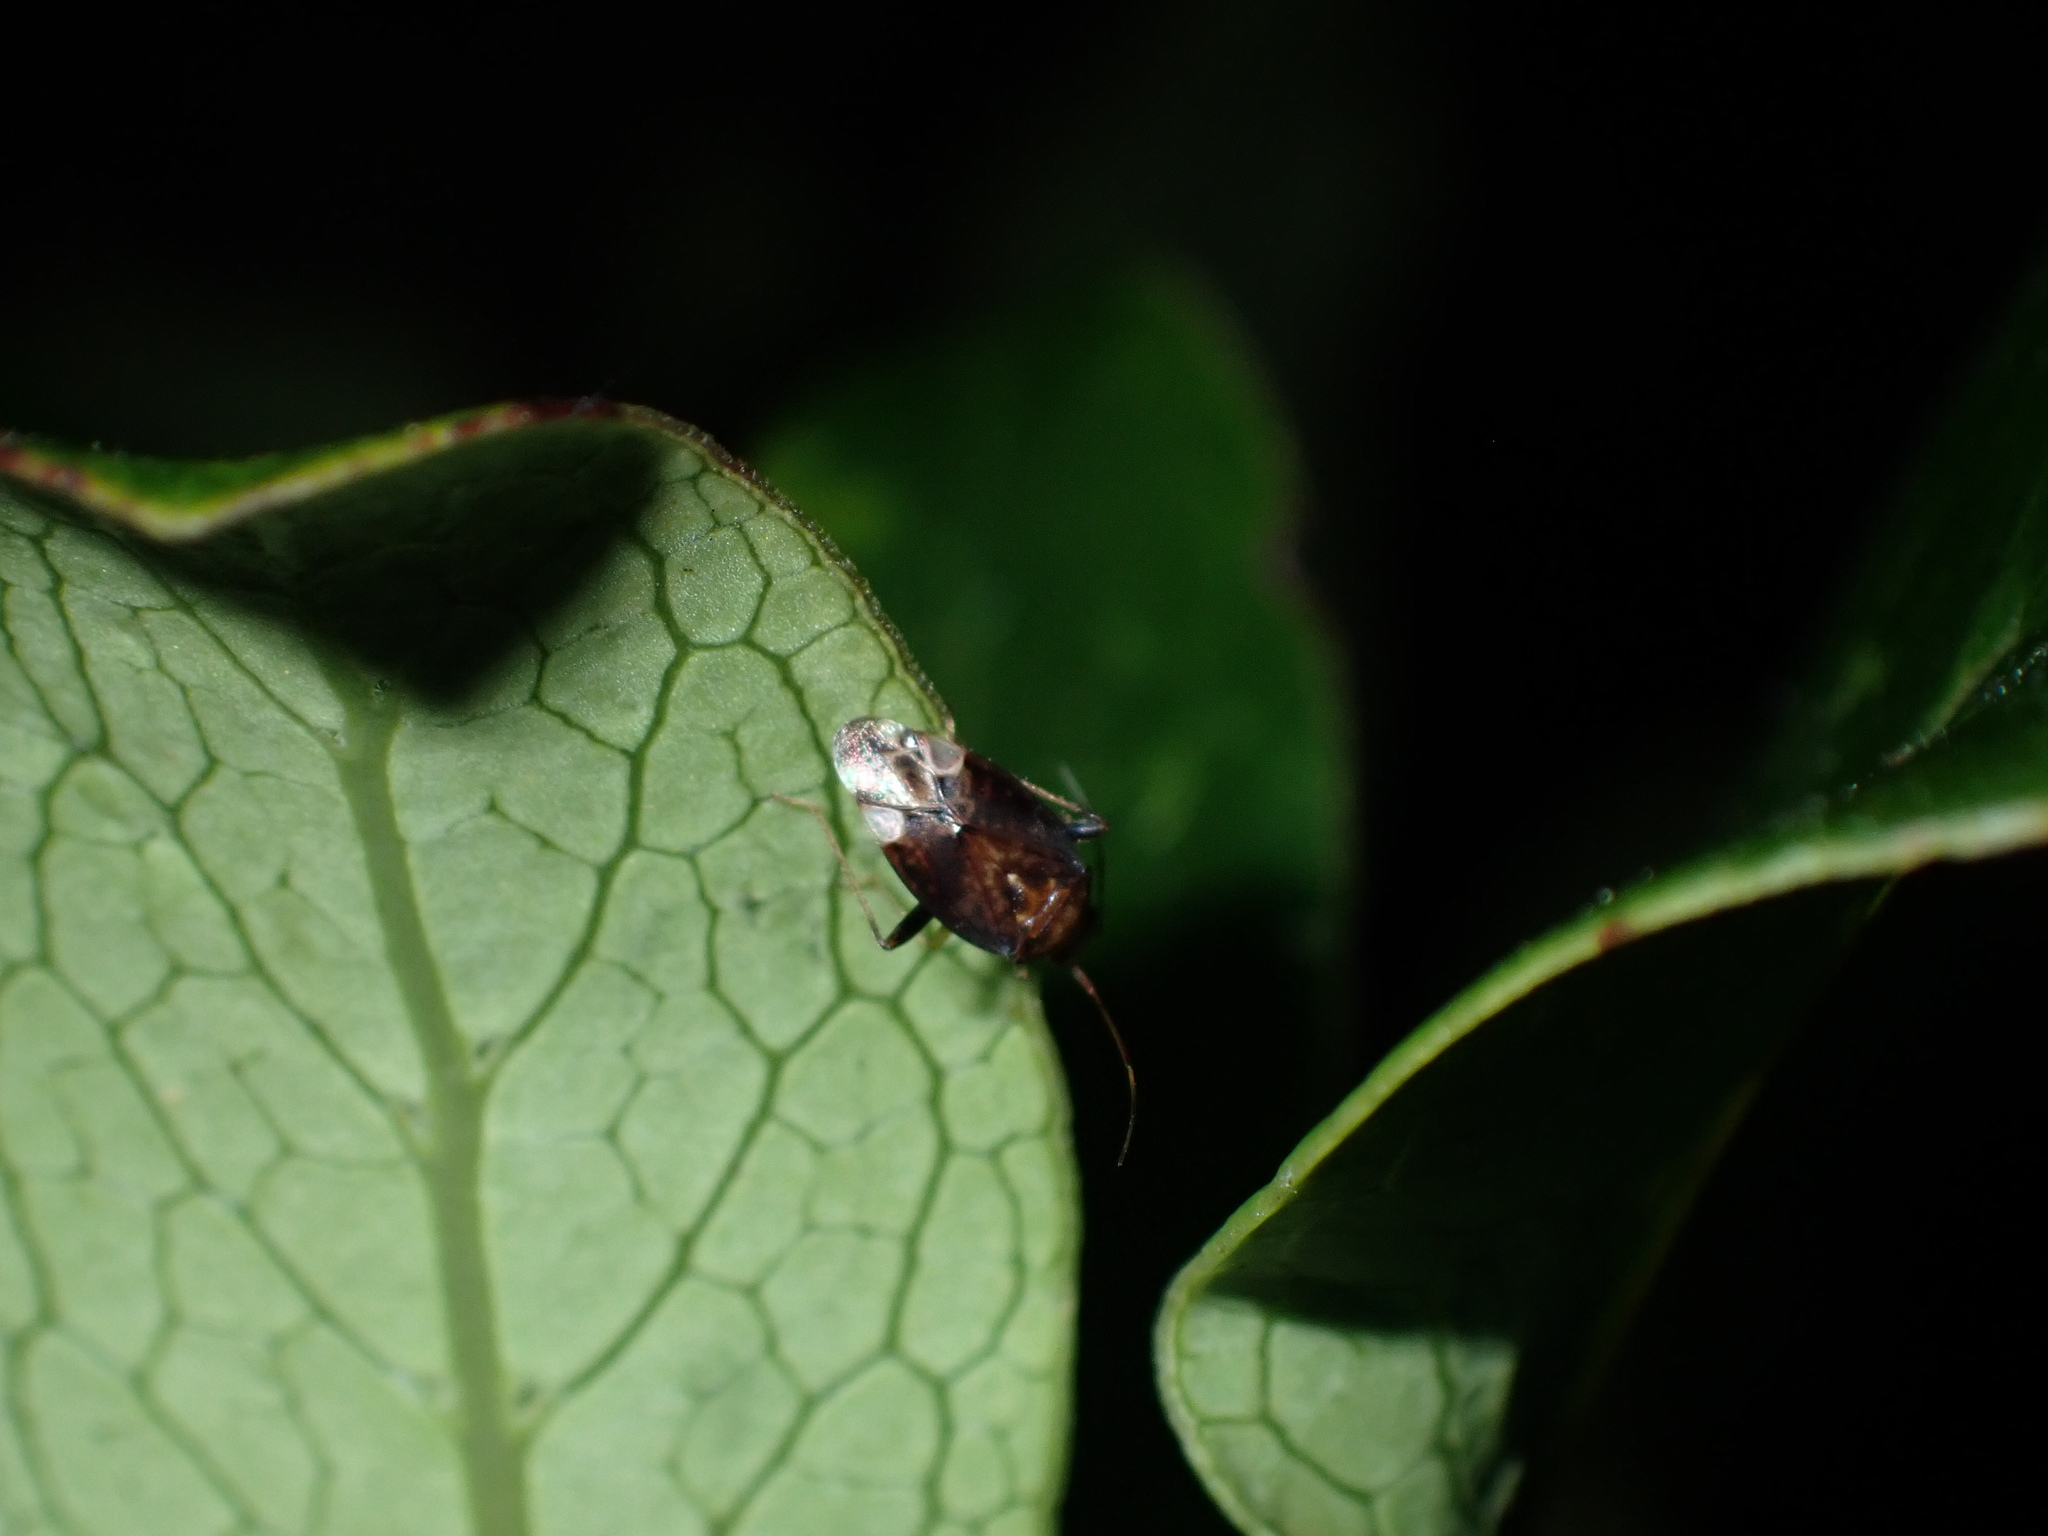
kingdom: Animalia
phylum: Arthropoda
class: Insecta
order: Hemiptera
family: Miridae
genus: Chinamiris
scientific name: Chinamiris indeclivis
